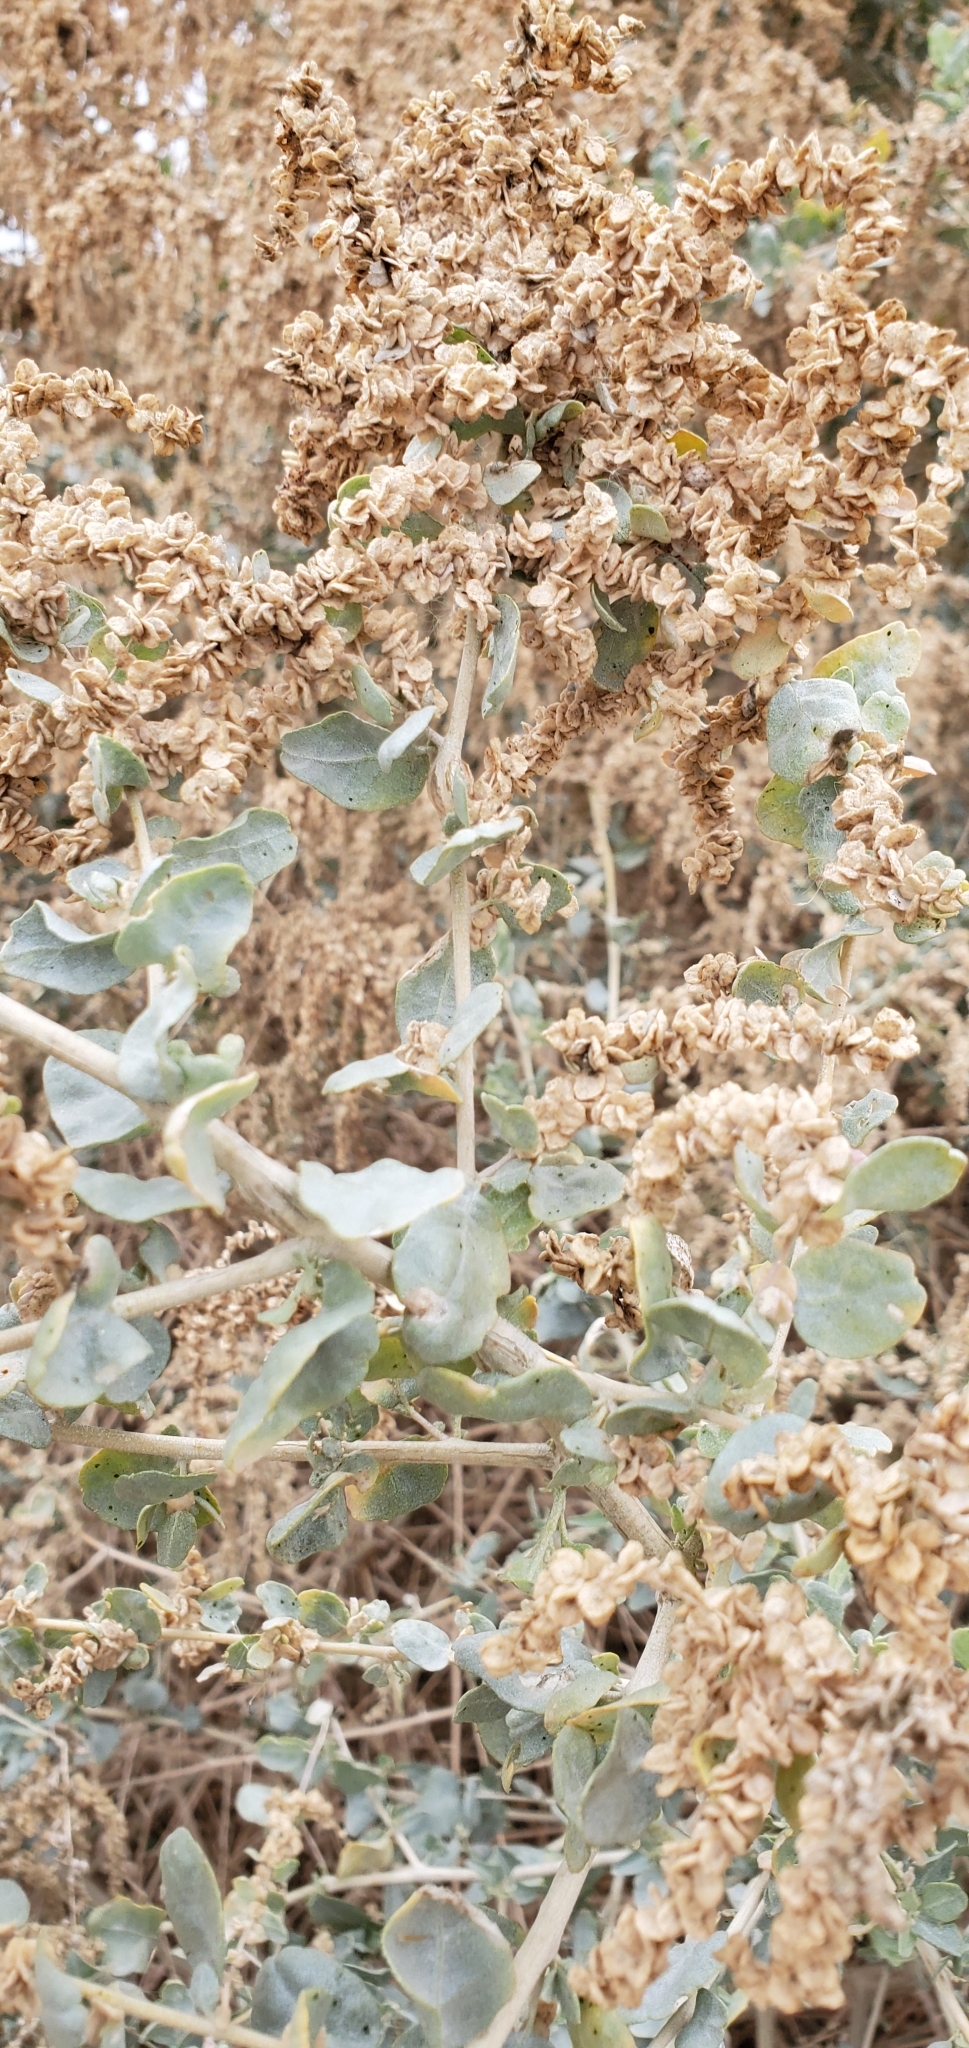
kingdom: Plantae
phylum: Tracheophyta
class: Magnoliopsida
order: Caryophyllales
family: Amaranthaceae
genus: Atriplex
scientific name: Atriplex lentiformis
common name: Big saltbush
